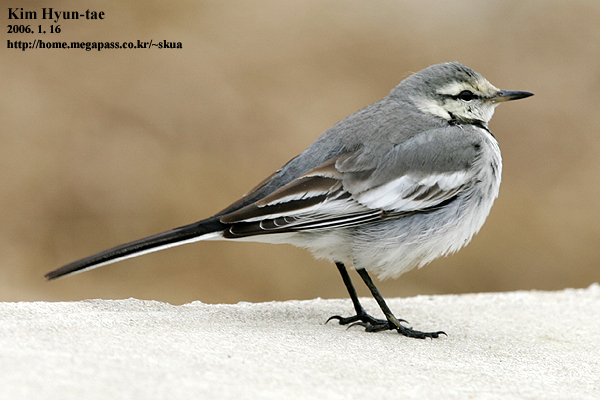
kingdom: Animalia
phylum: Chordata
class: Aves
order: Passeriformes
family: Motacillidae
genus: Motacilla
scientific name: Motacilla alba
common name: White wagtail
